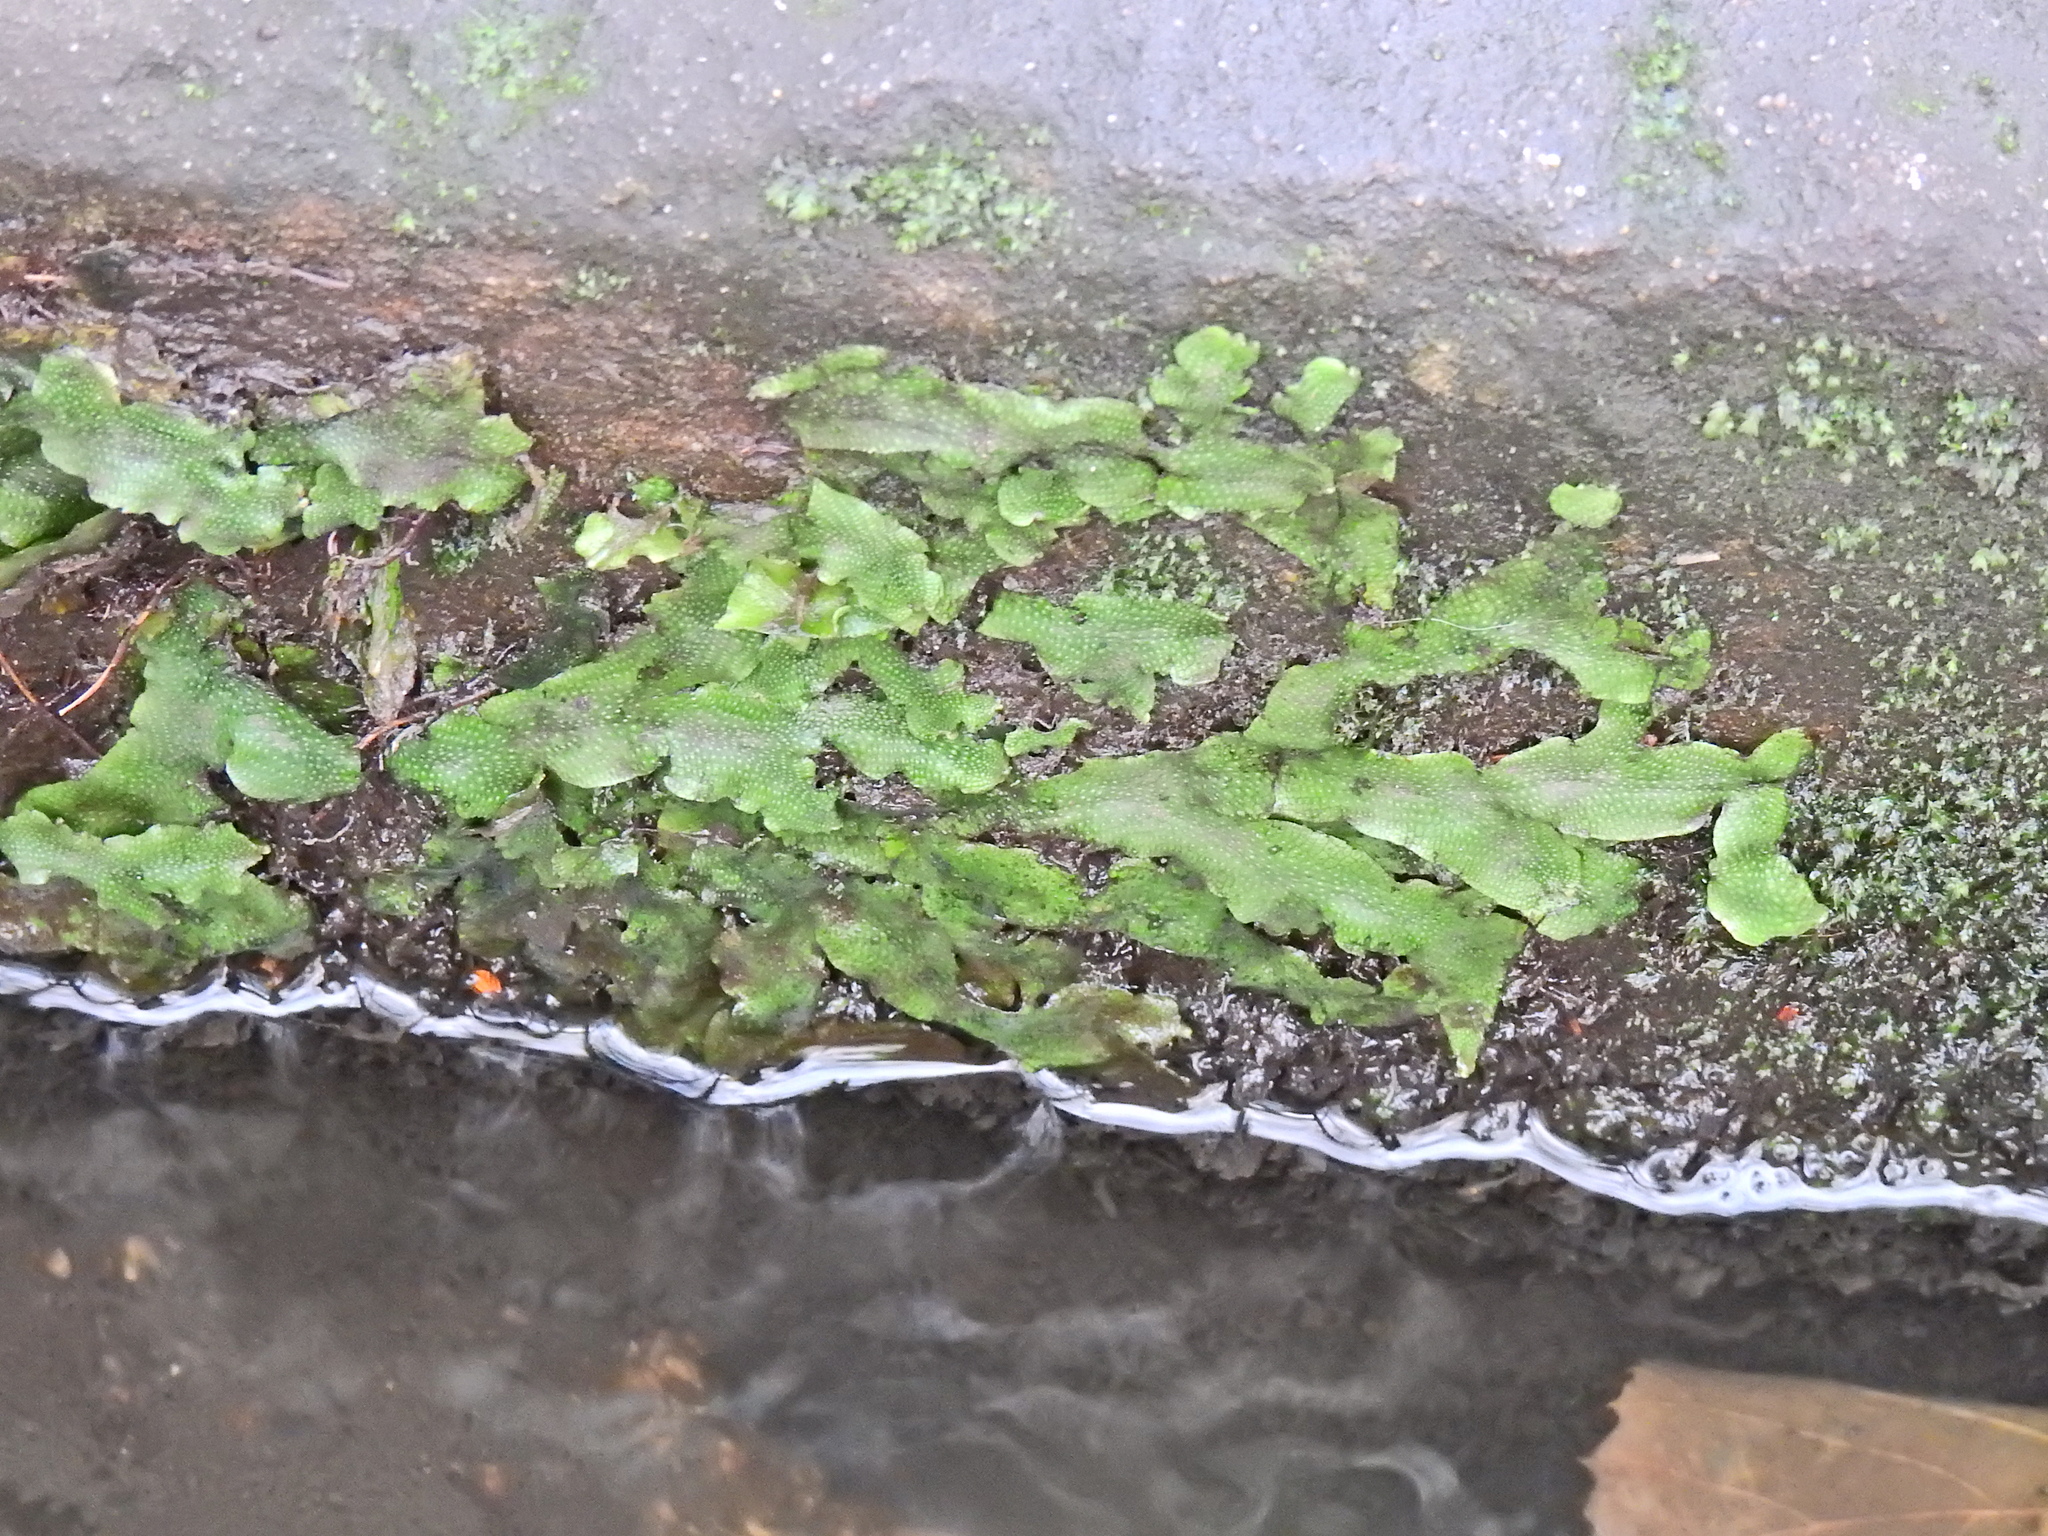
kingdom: Plantae
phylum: Marchantiophyta
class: Marchantiopsida
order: Marchantiales
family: Conocephalaceae
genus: Conocephalum
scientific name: Conocephalum conicum
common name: Great scented liverwort
